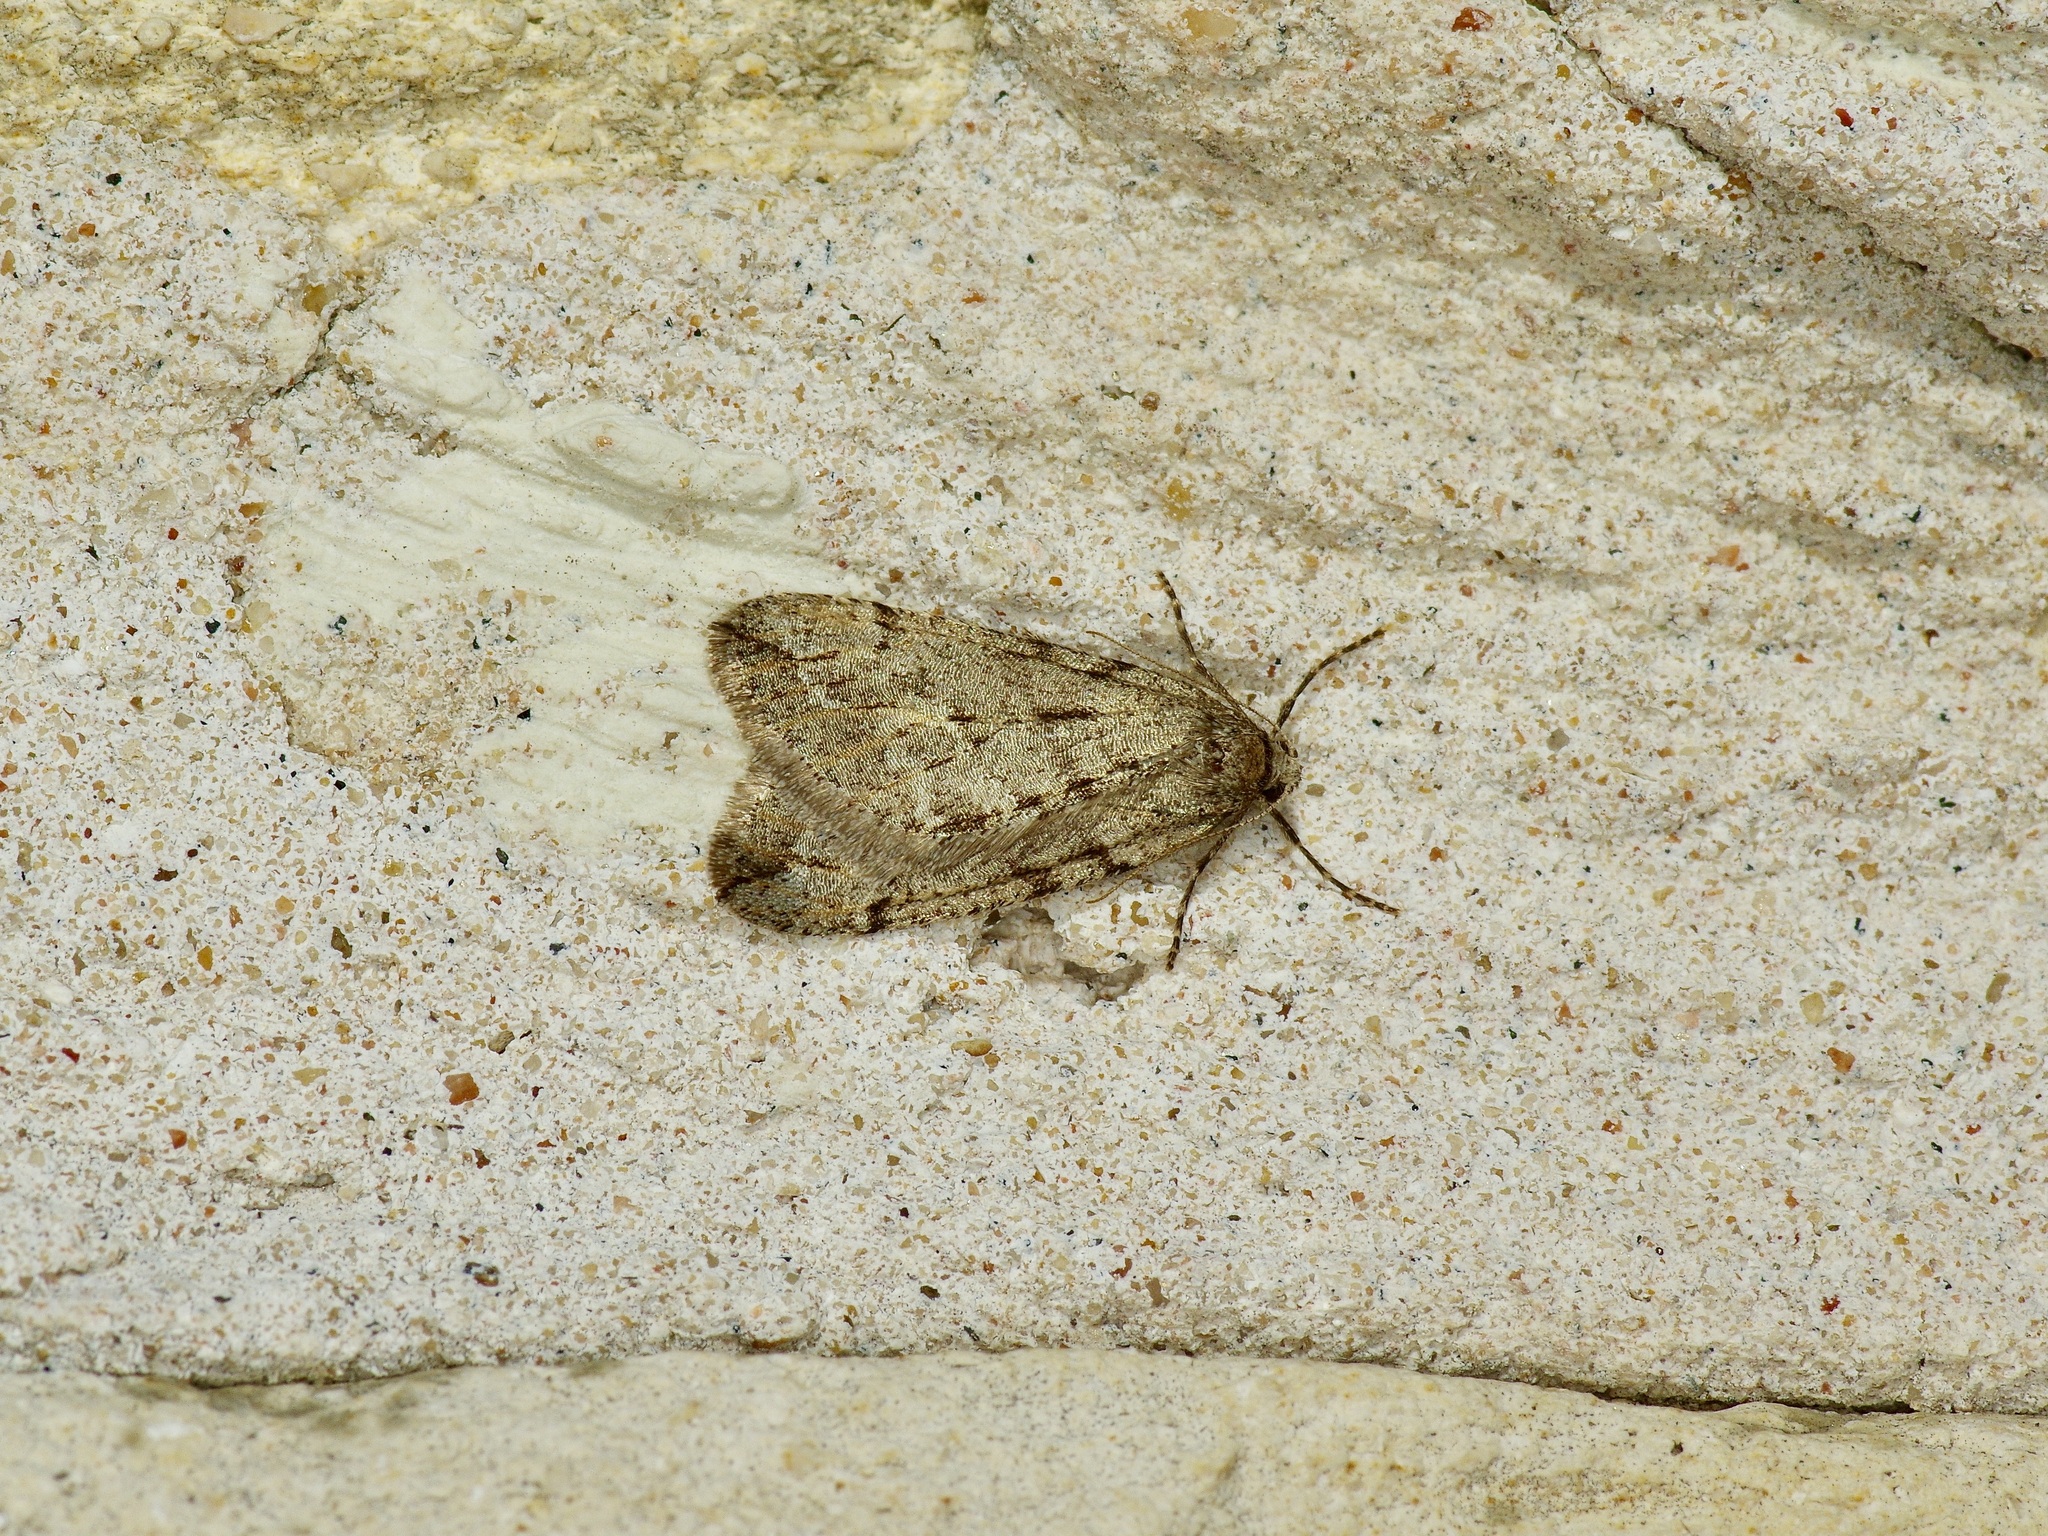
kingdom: Animalia
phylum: Arthropoda
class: Insecta
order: Lepidoptera
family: Geometridae
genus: Paleacrita
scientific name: Paleacrita vernata
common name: Spring cankerworm
